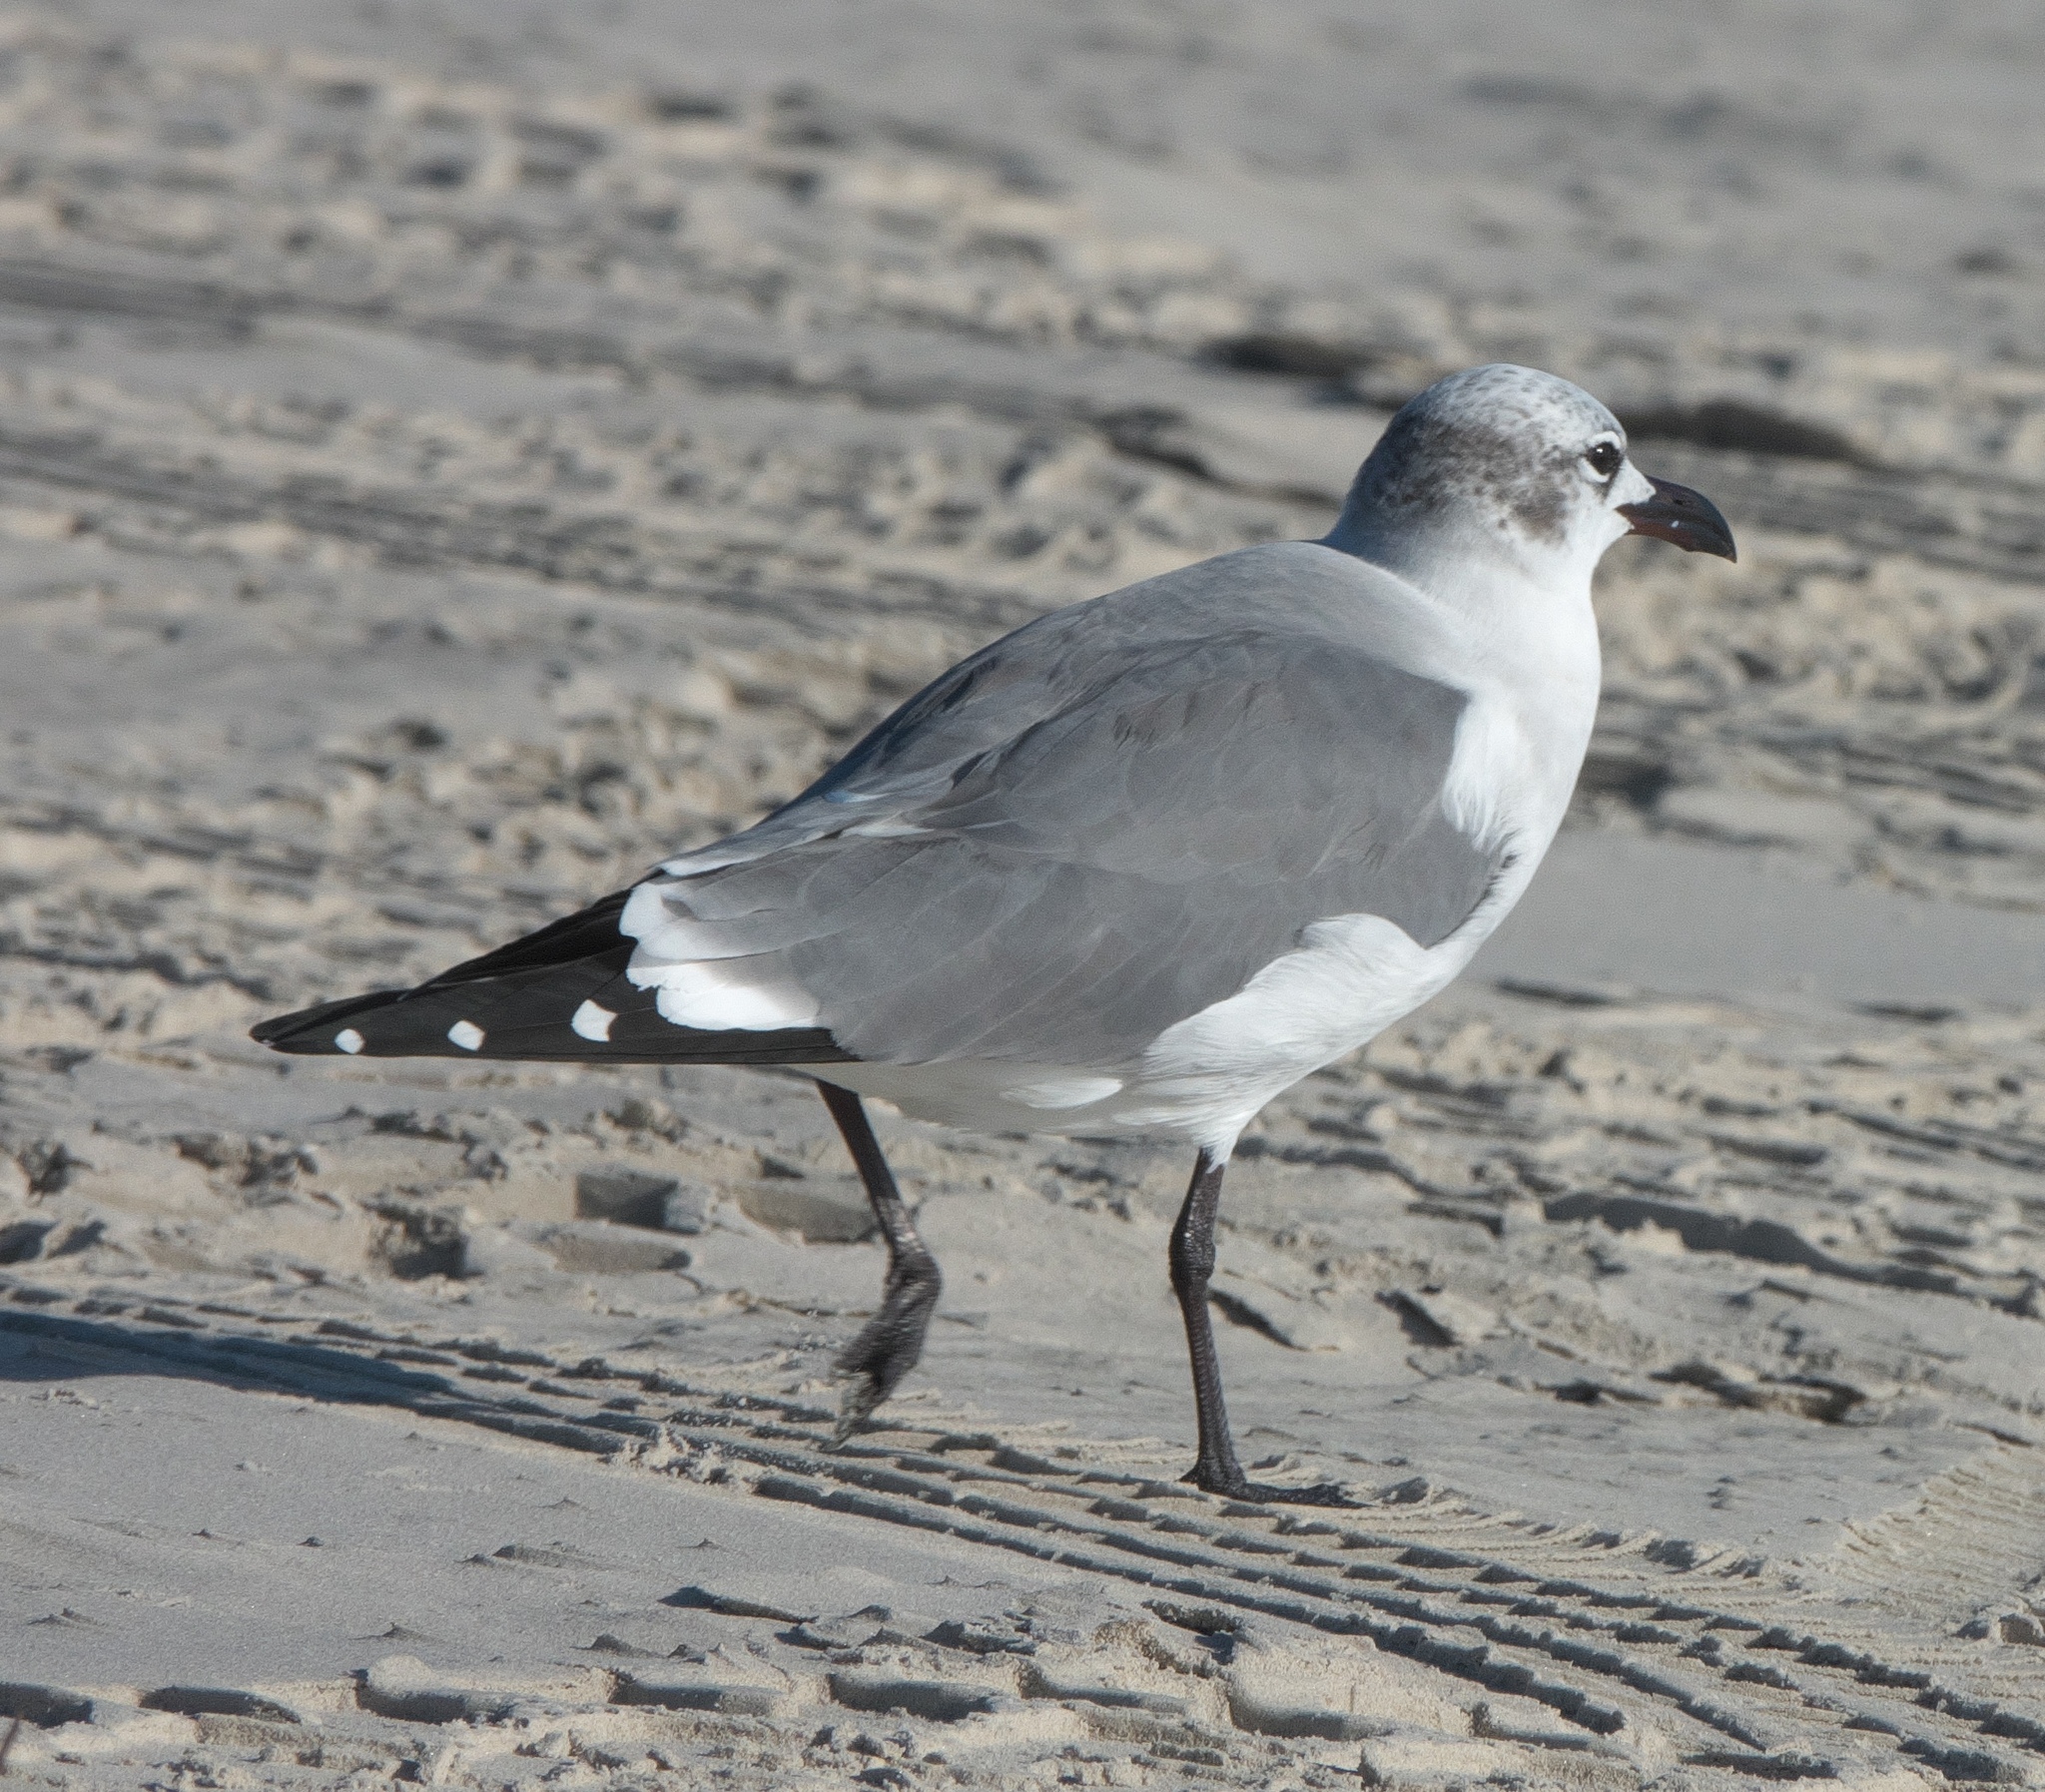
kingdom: Animalia
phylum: Chordata
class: Aves
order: Charadriiformes
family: Laridae
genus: Leucophaeus
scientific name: Leucophaeus atricilla
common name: Laughing gull
